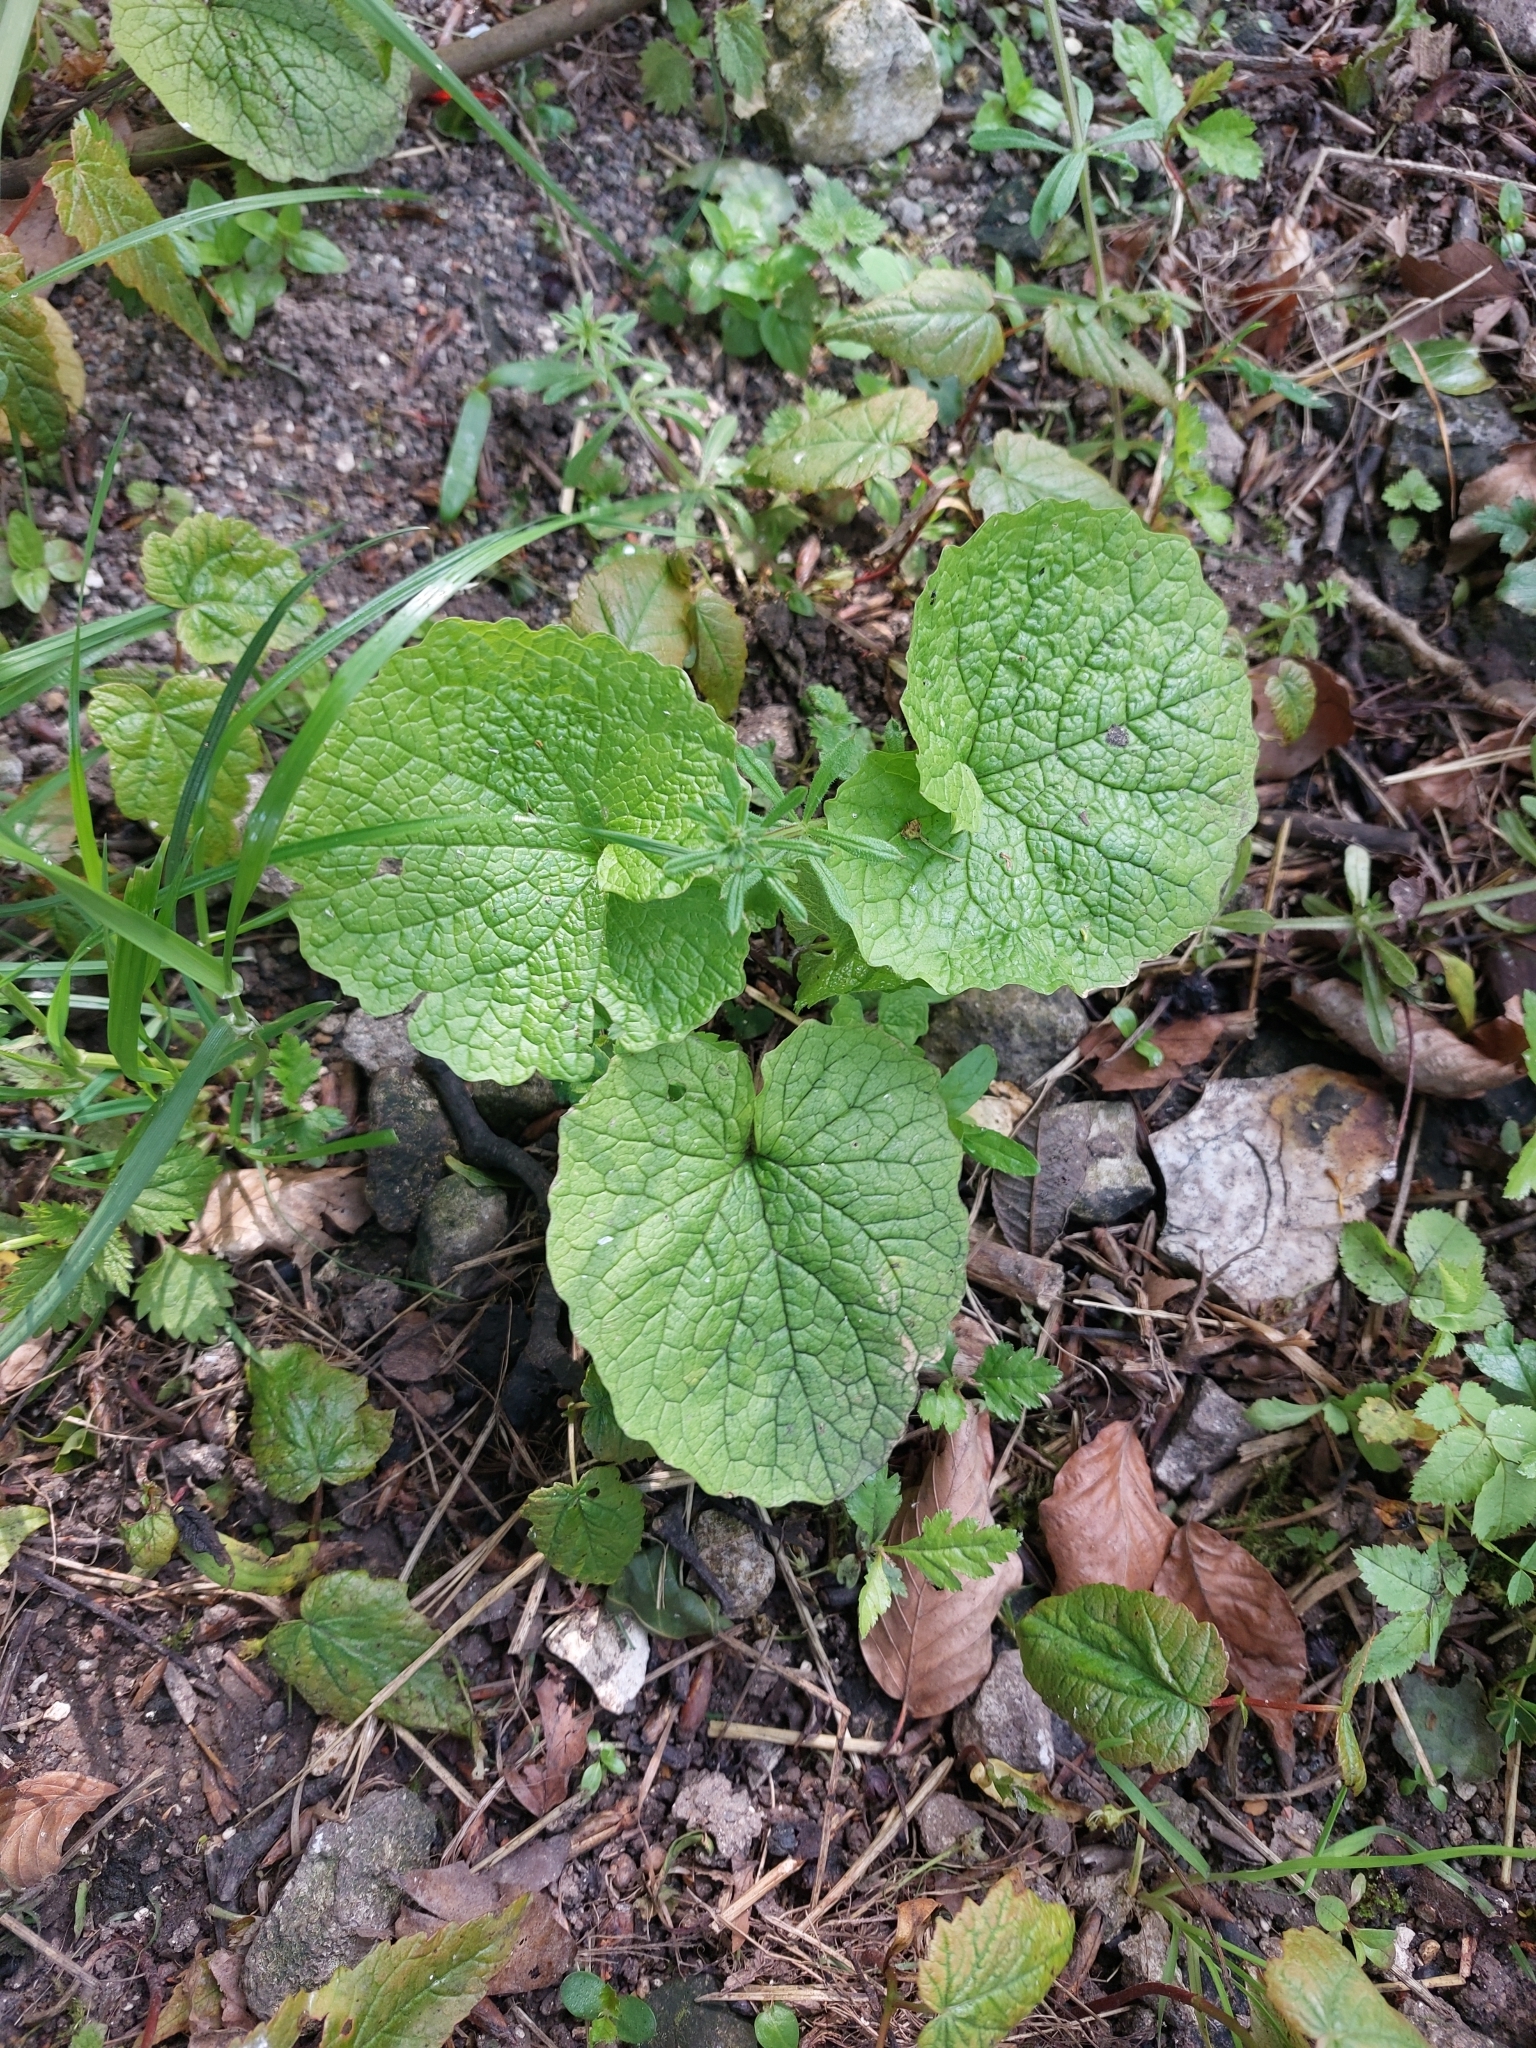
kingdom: Plantae
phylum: Tracheophyta
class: Magnoliopsida
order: Brassicales
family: Brassicaceae
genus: Alliaria
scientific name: Alliaria petiolata
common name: Garlic mustard
